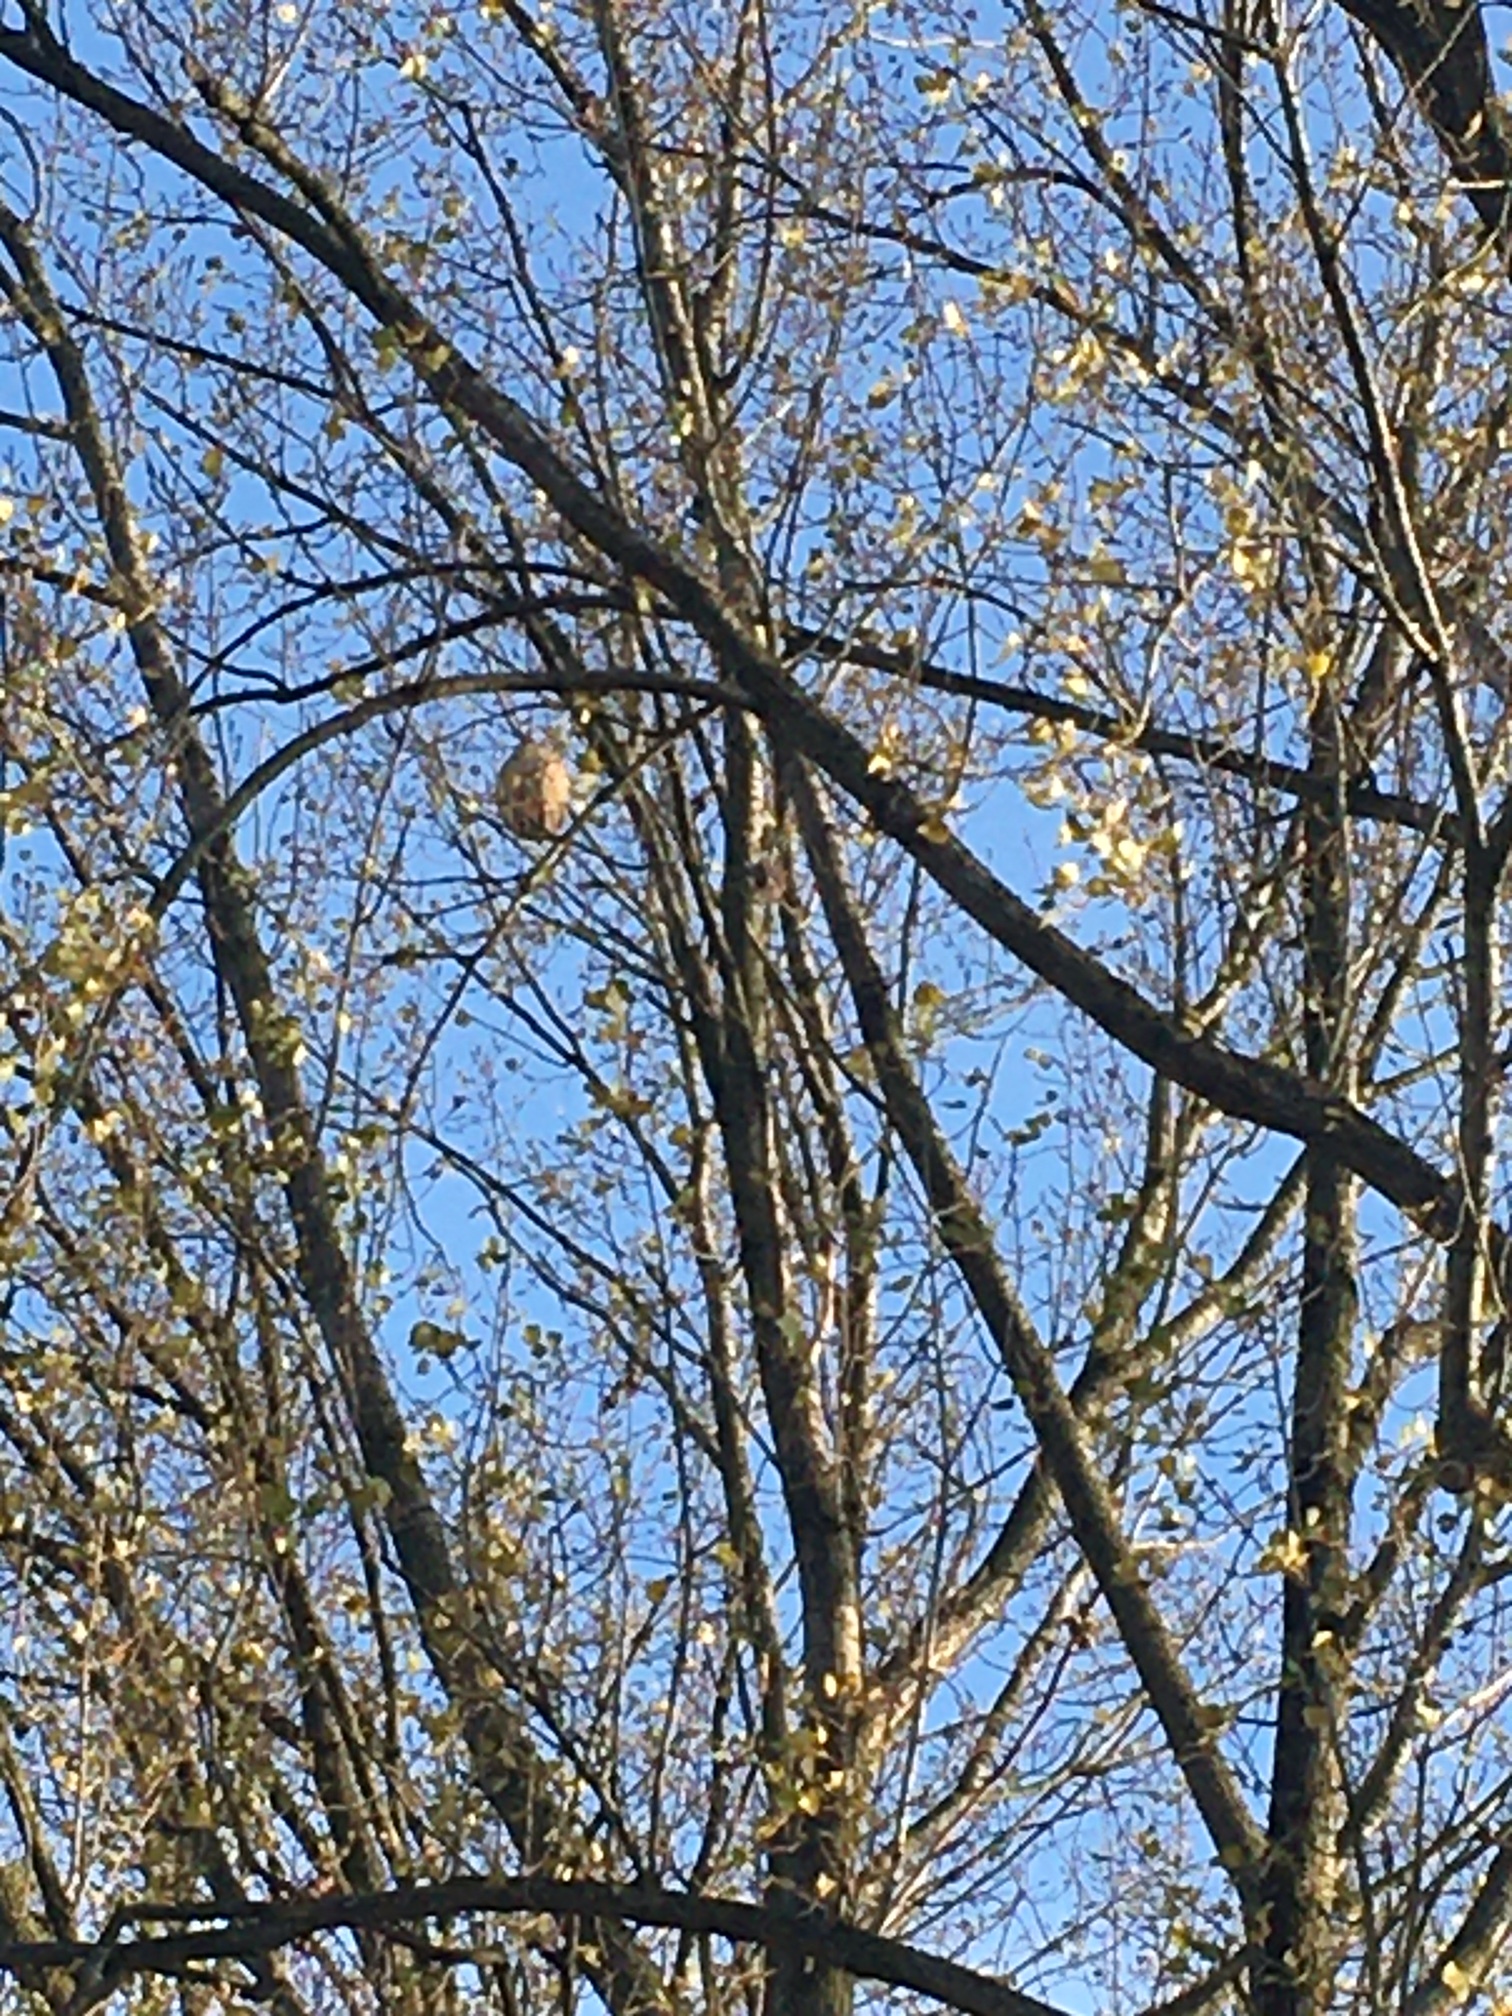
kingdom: Animalia
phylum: Arthropoda
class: Insecta
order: Hymenoptera
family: Vespidae
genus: Vespa
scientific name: Vespa velutina
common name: Asian hornet
